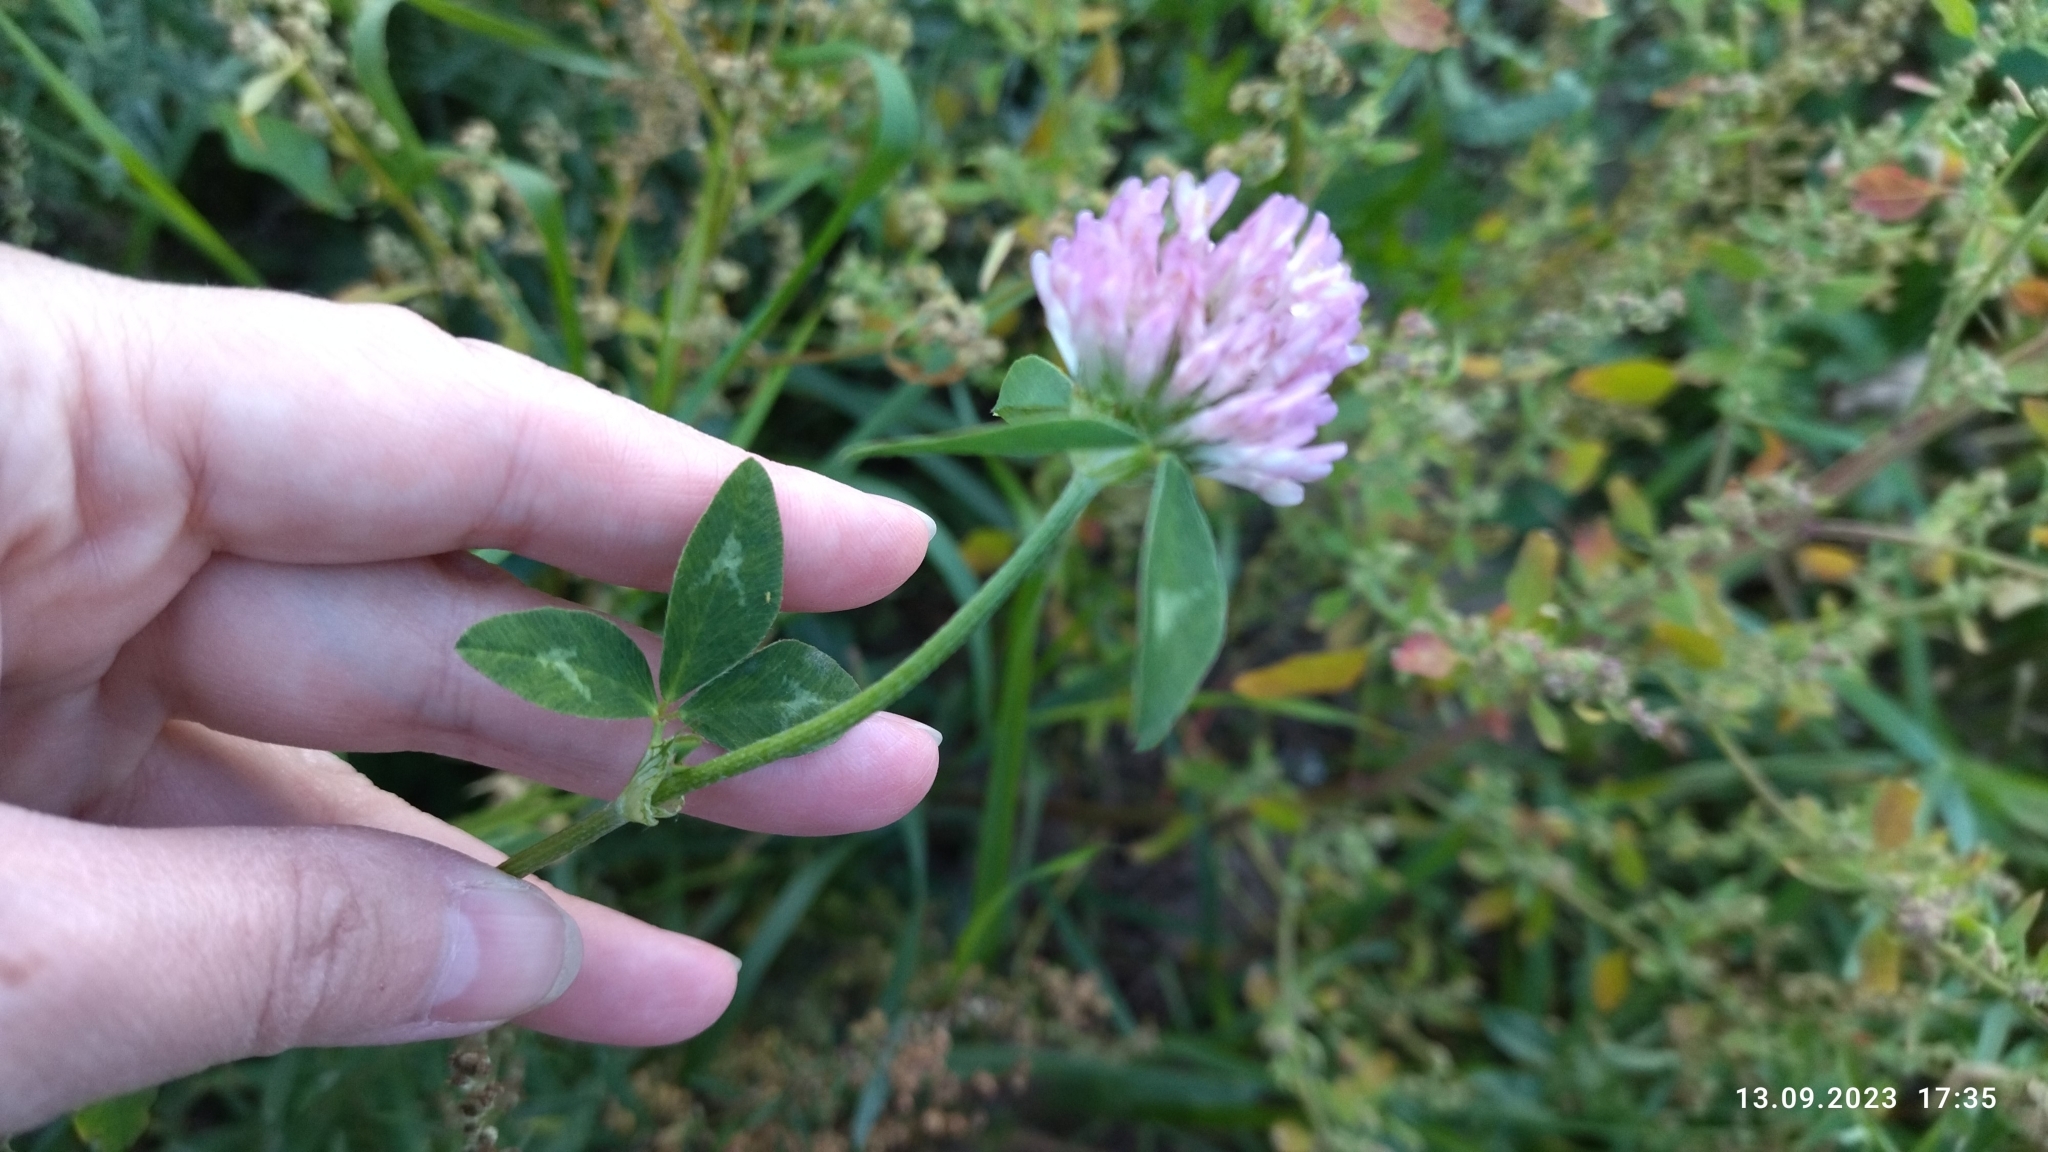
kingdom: Plantae
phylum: Tracheophyta
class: Magnoliopsida
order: Fabales
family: Fabaceae
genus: Trifolium
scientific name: Trifolium pratense
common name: Red clover
